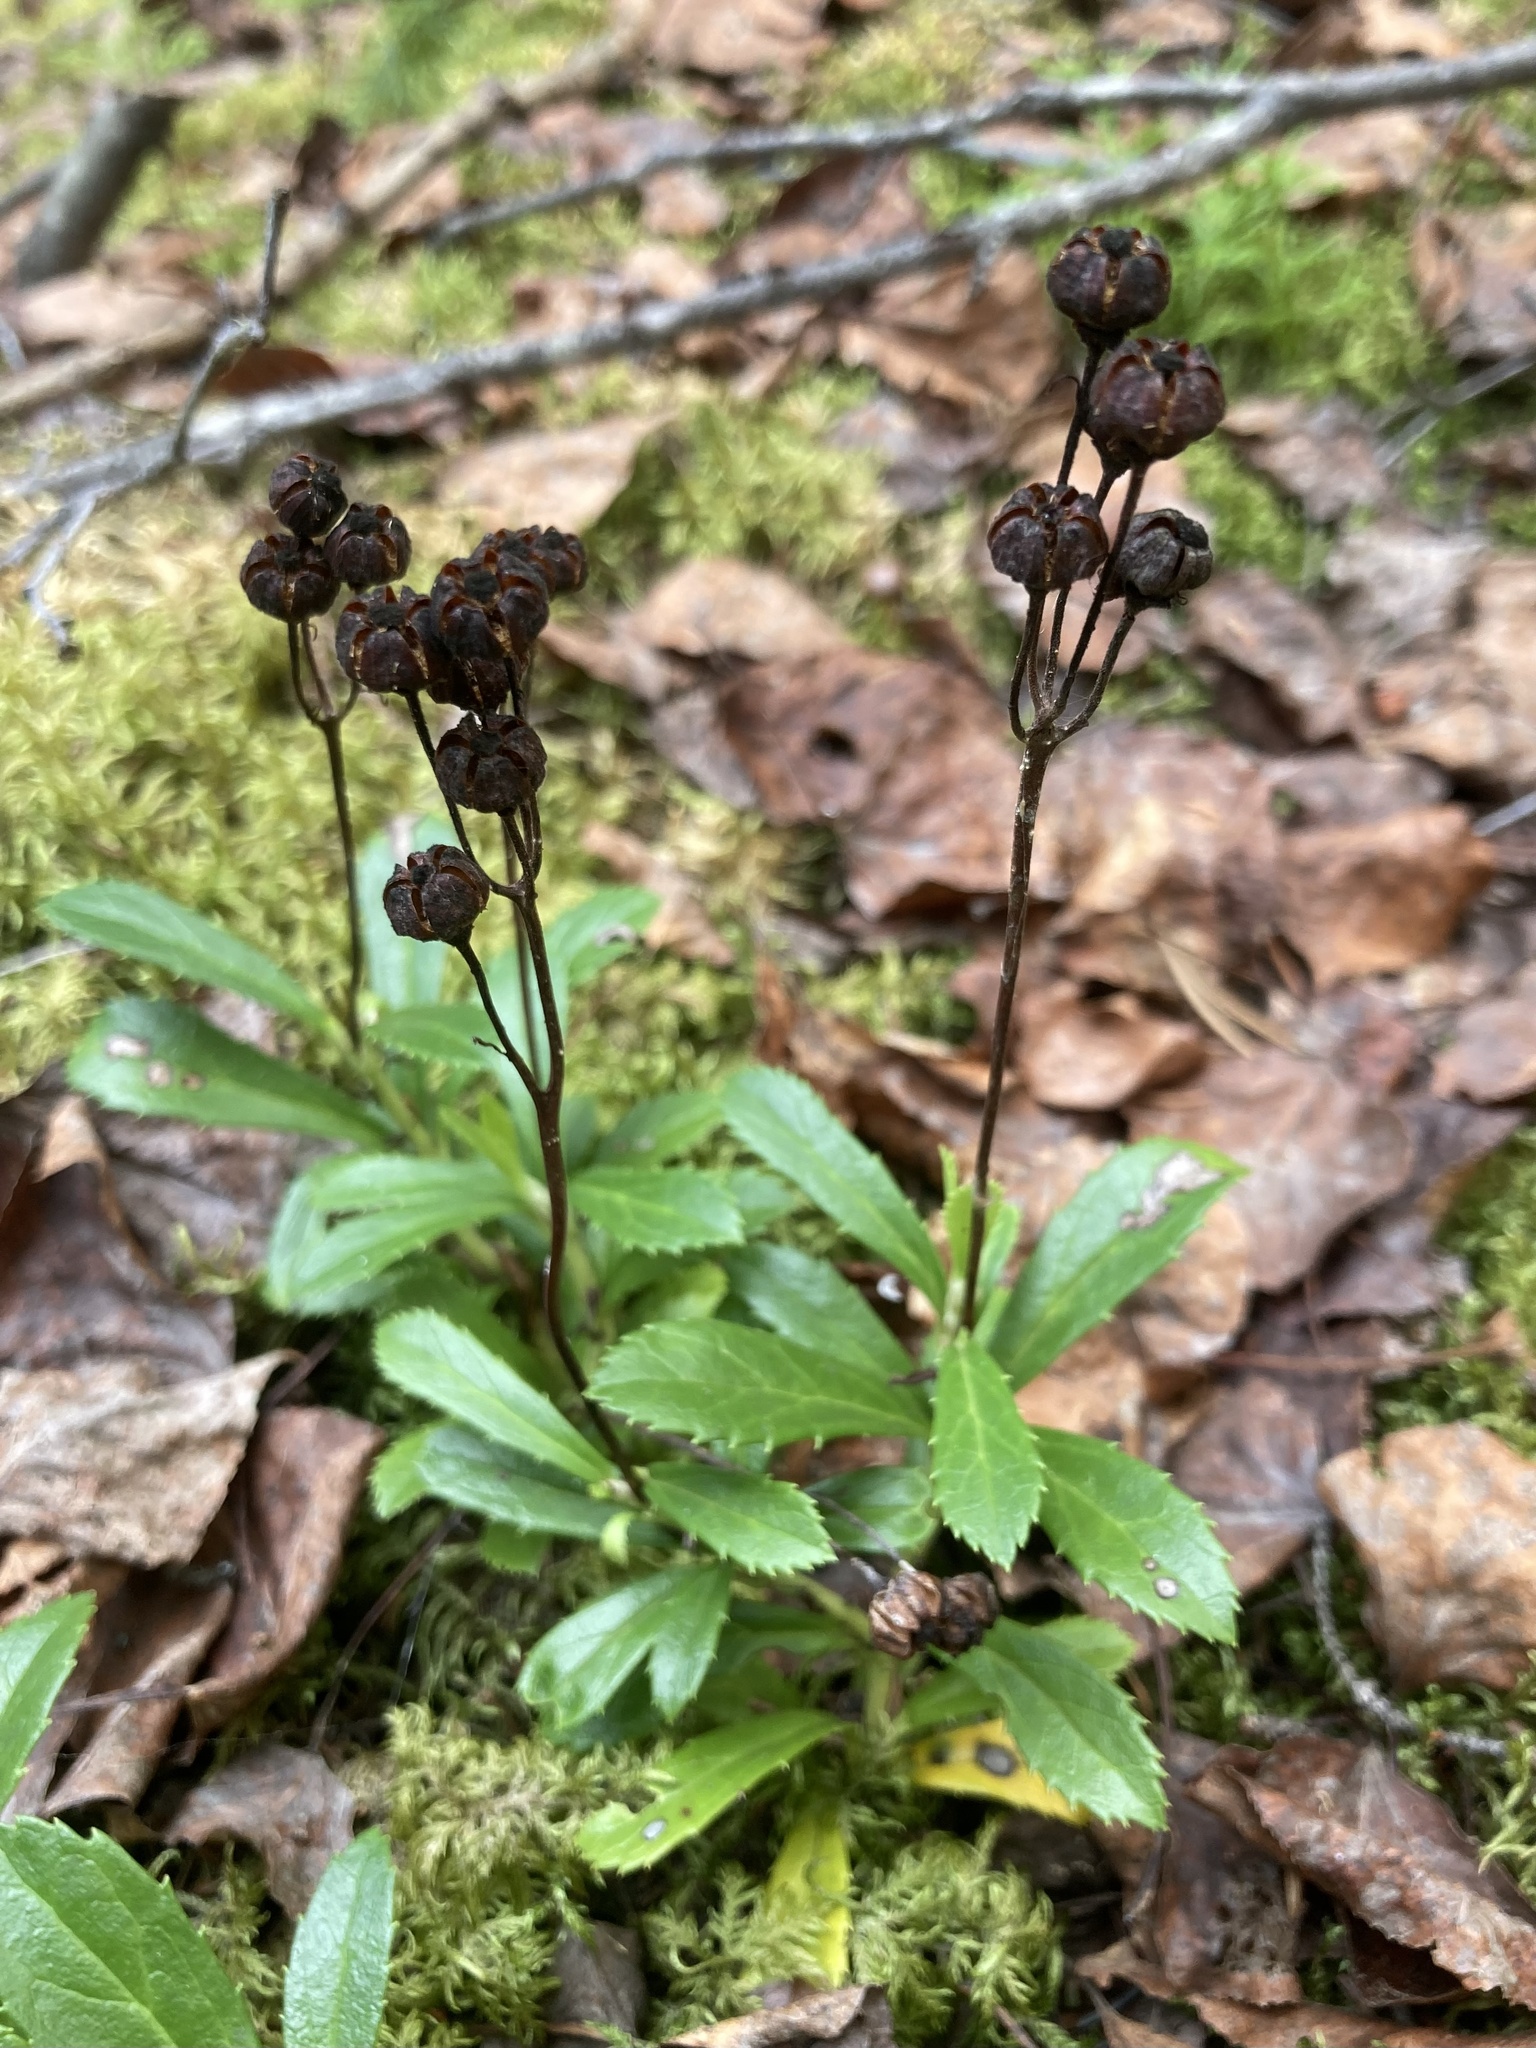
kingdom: Plantae
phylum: Tracheophyta
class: Magnoliopsida
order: Ericales
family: Ericaceae
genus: Chimaphila
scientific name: Chimaphila umbellata
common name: Pipsissewa
